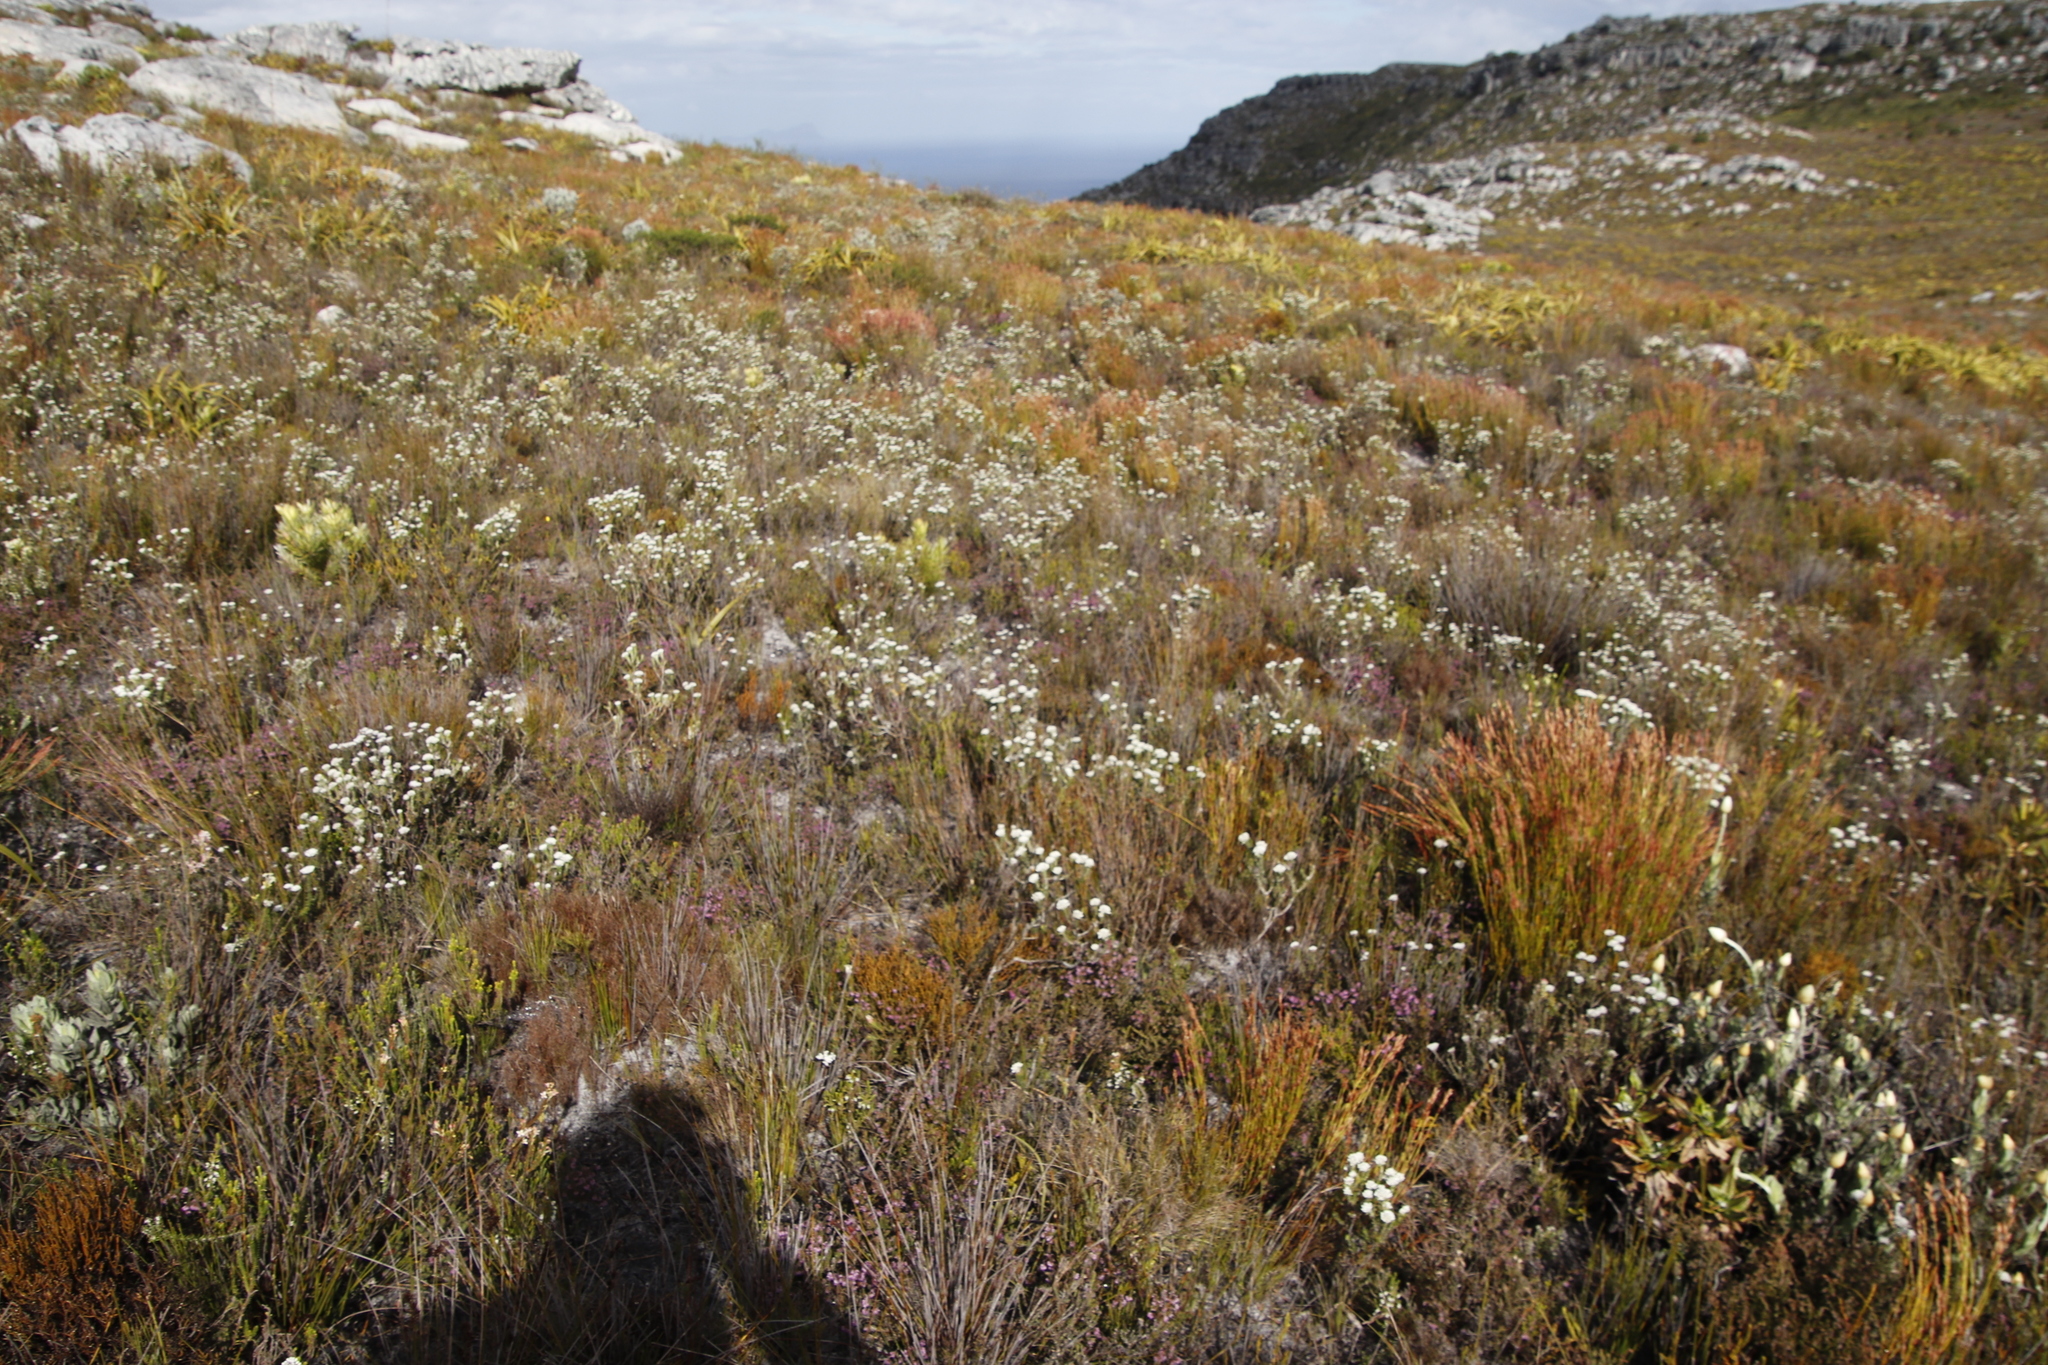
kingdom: Plantae
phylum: Tracheophyta
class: Magnoliopsida
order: Asterales
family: Asteraceae
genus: Metalasia
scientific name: Metalasia compacta
